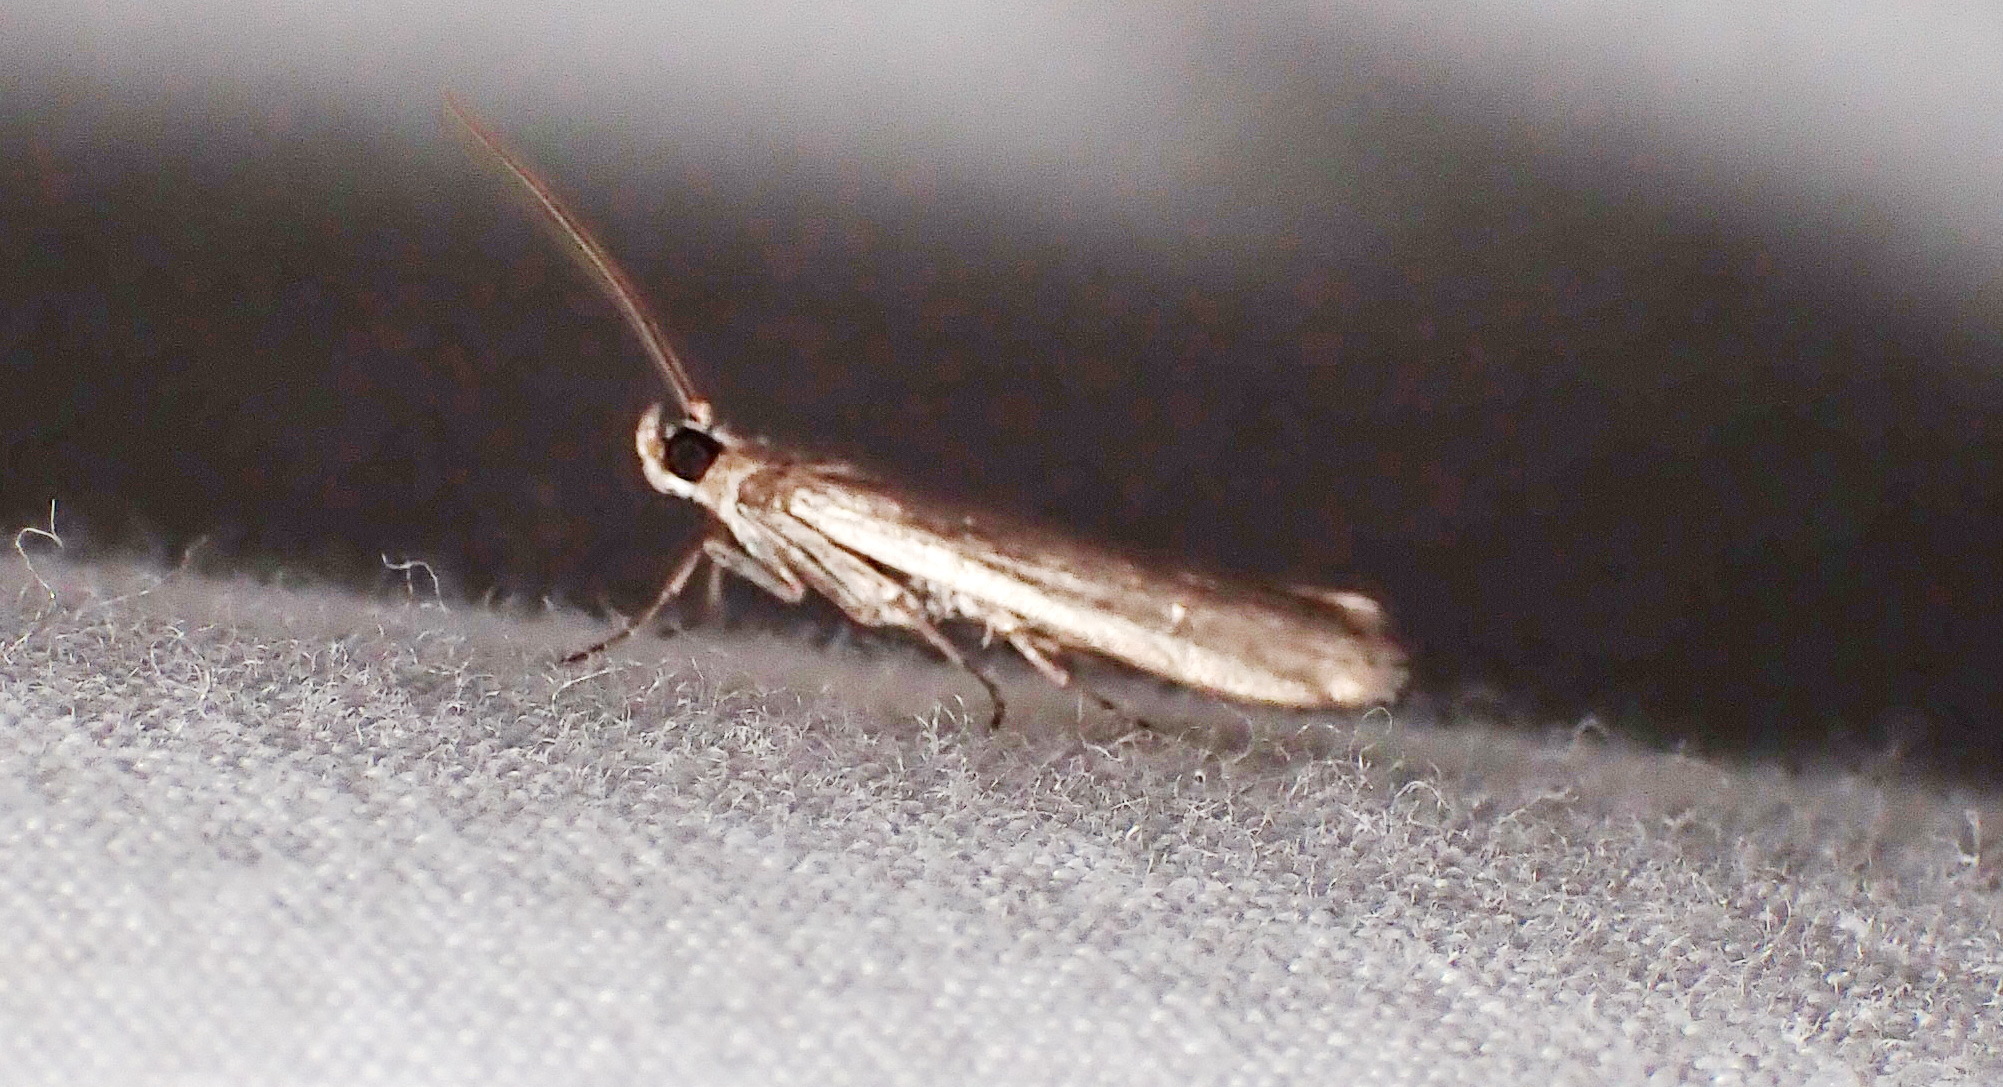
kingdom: Animalia
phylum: Arthropoda
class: Insecta
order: Lepidoptera
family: Pyralidae
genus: Homoeosoma
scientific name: Homoeosoma electella
